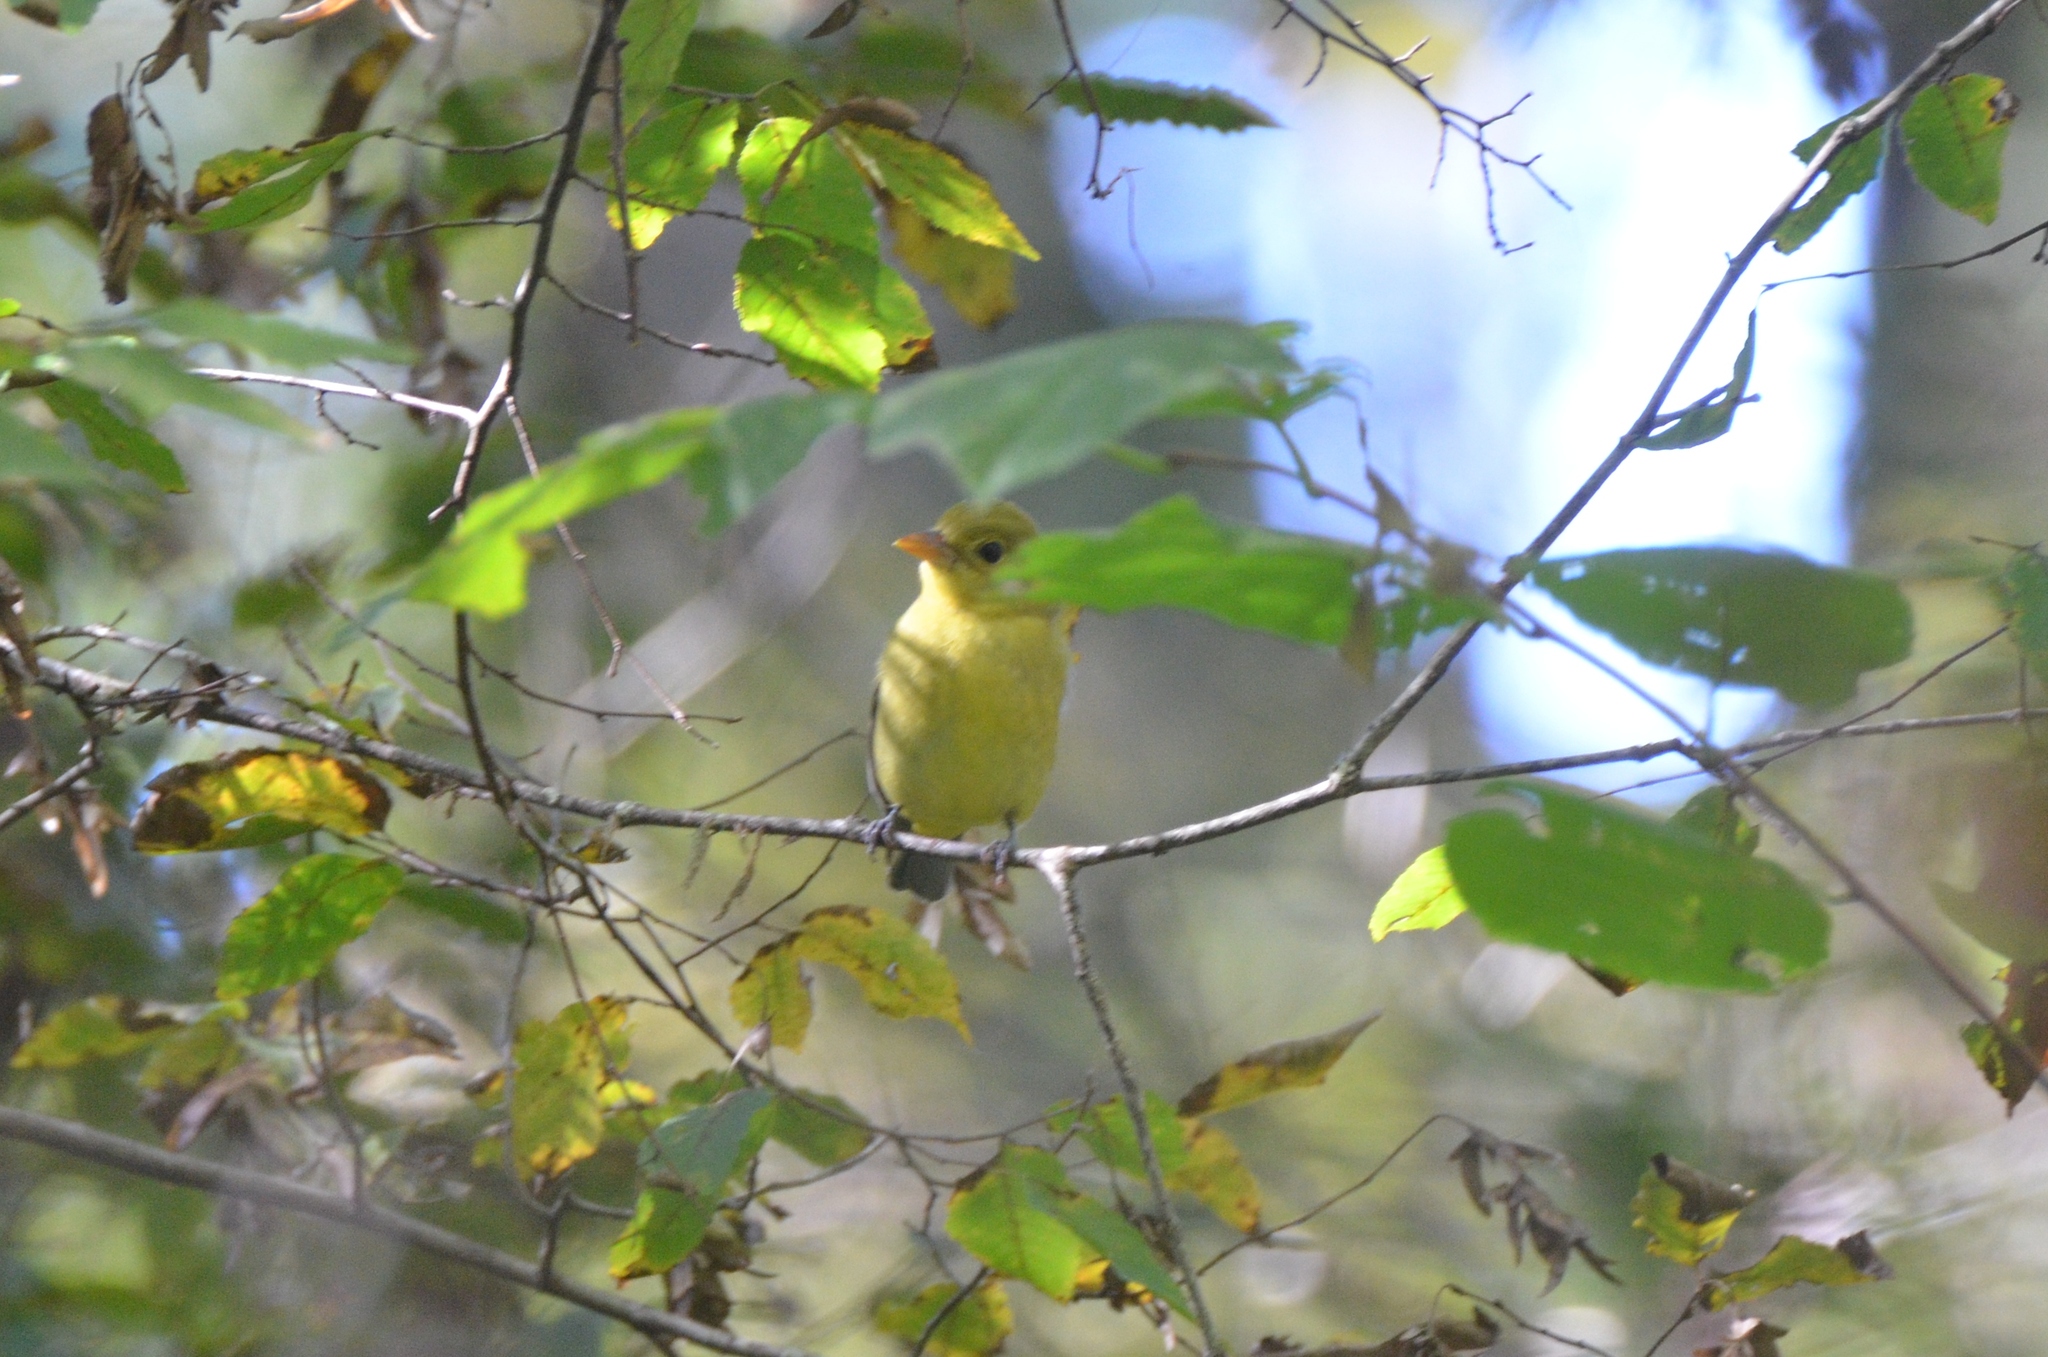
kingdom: Animalia
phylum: Chordata
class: Aves
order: Passeriformes
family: Cardinalidae
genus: Piranga
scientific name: Piranga olivacea
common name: Scarlet tanager
